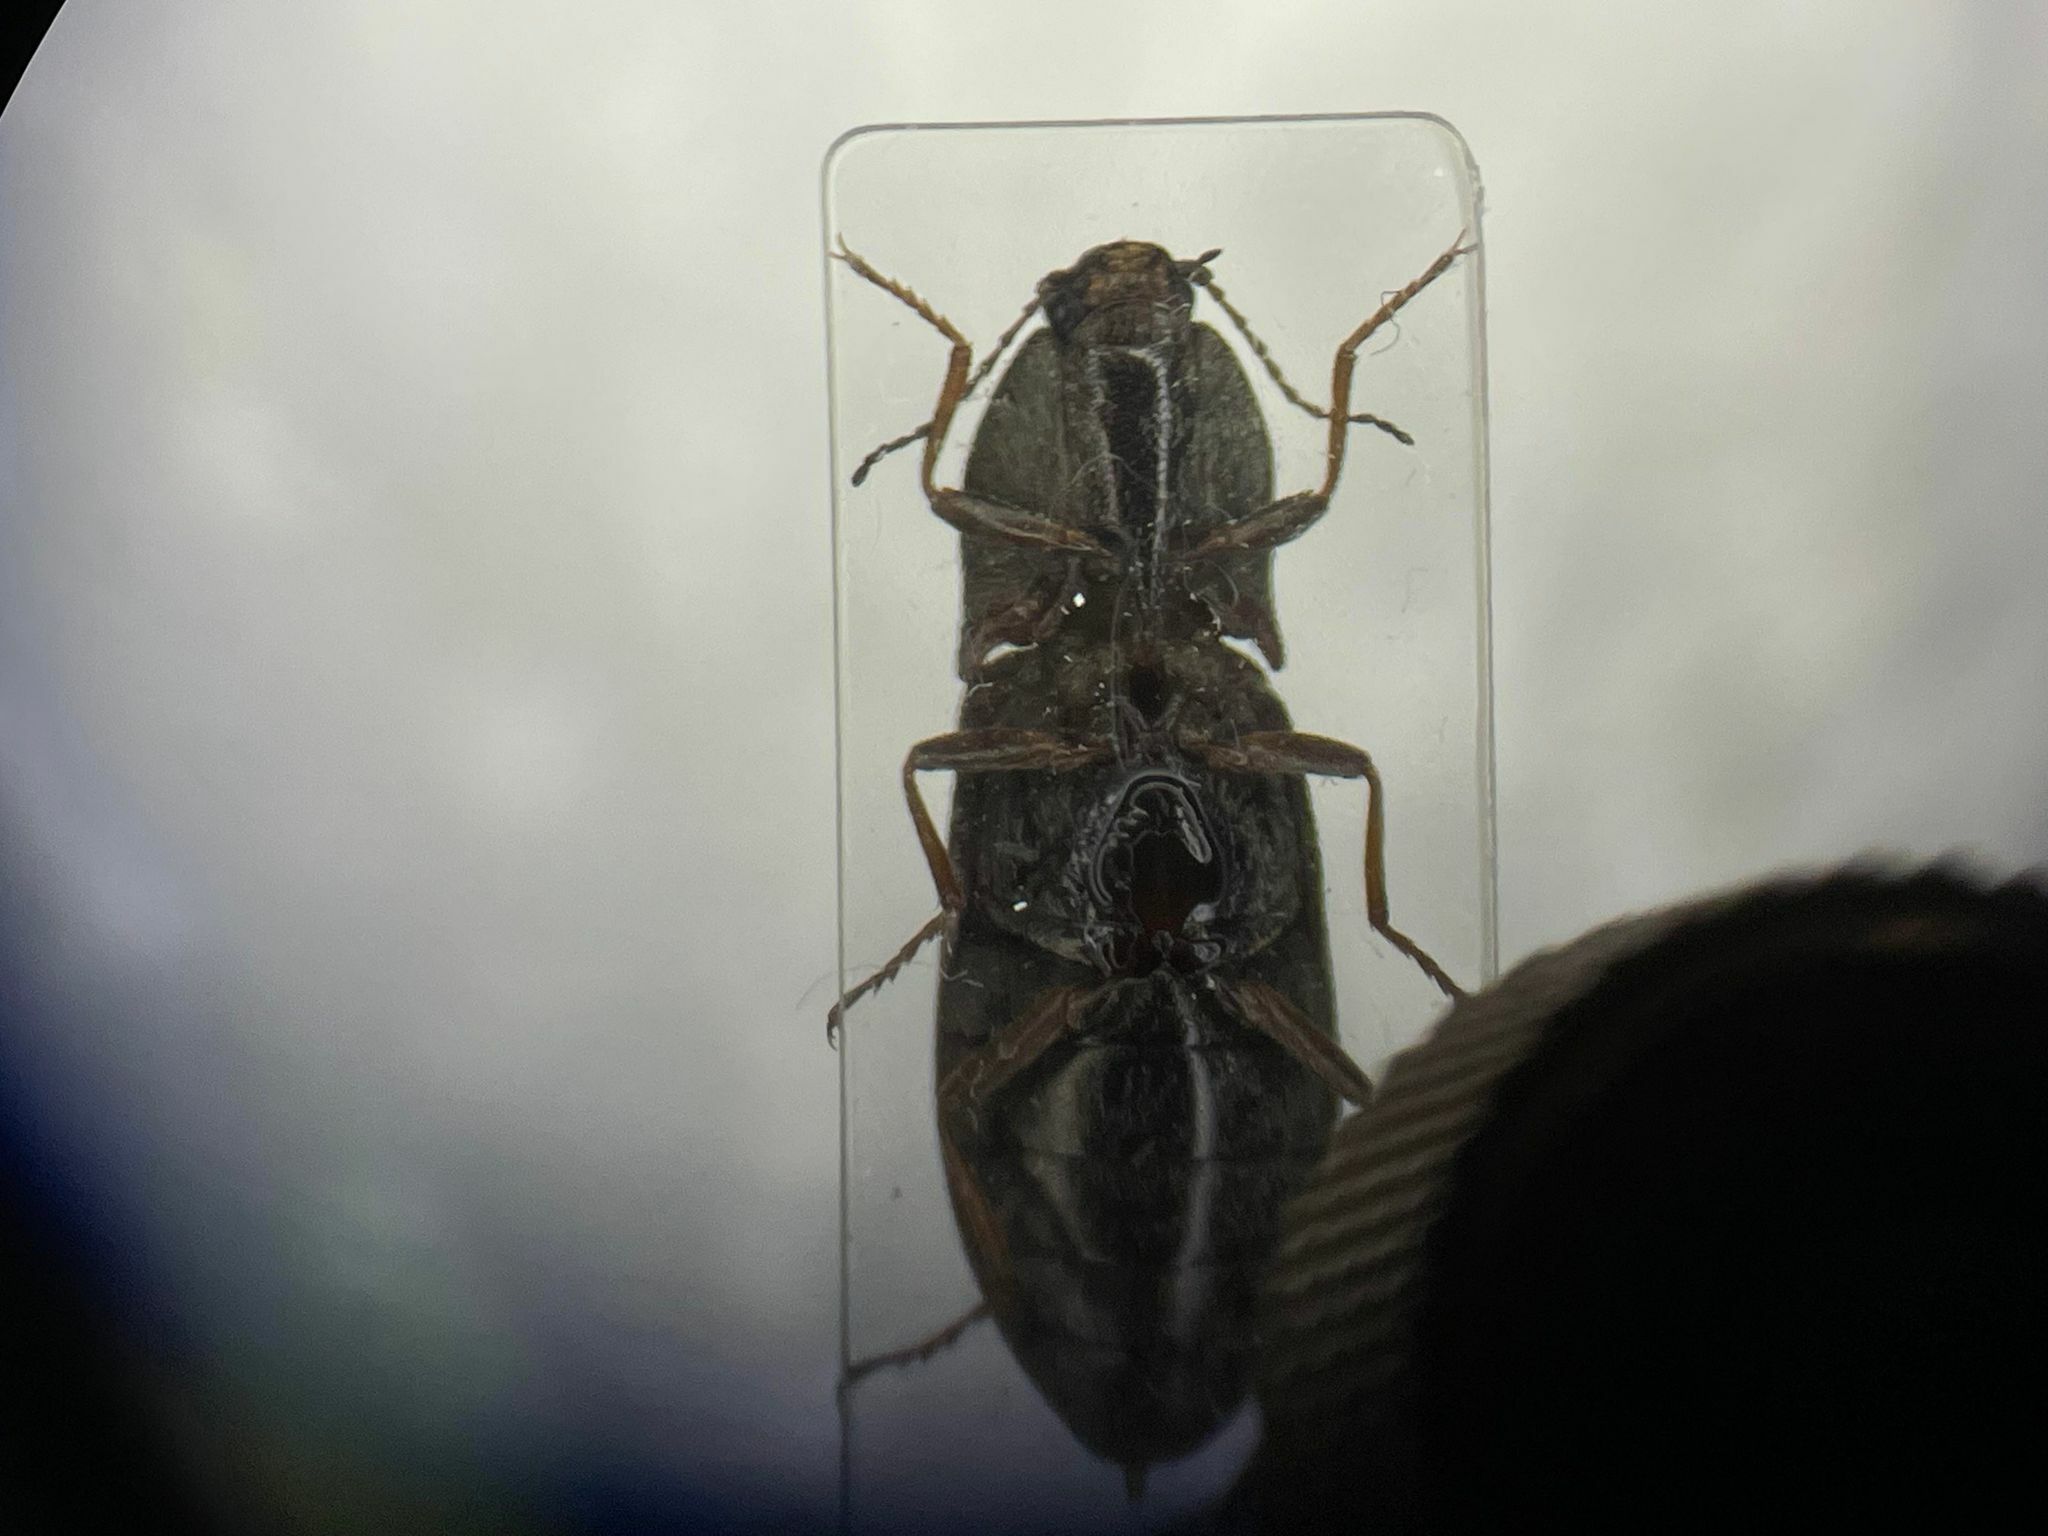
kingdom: Animalia
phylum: Arthropoda
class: Insecta
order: Coleoptera
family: Elateridae
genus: Setasomus
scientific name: Setasomus aratus
